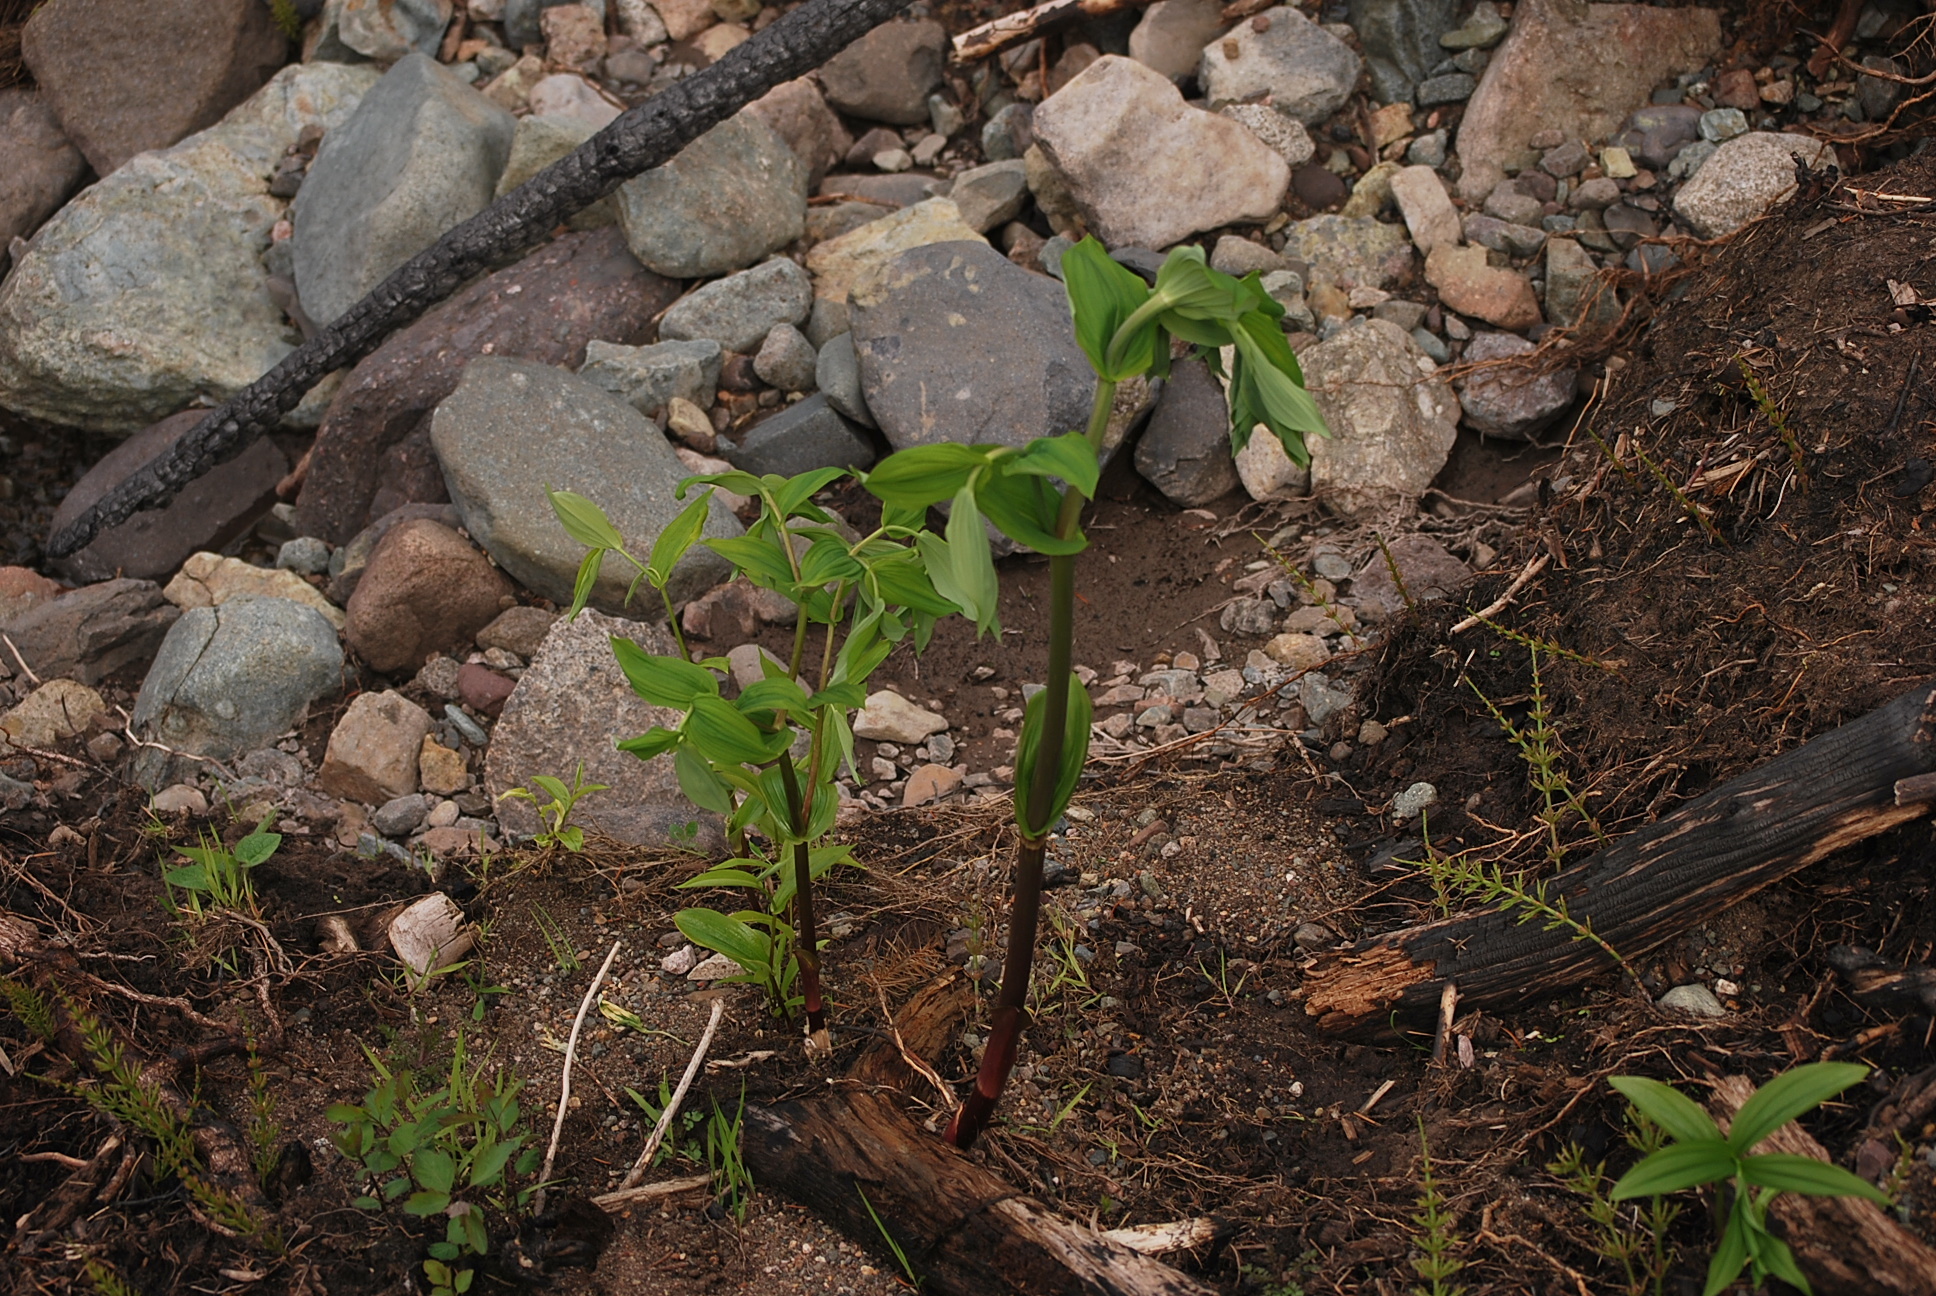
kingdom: Plantae
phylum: Tracheophyta
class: Liliopsida
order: Liliales
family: Liliaceae
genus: Streptopus
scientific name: Streptopus amplexifolius
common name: Clasp twisted stalk
